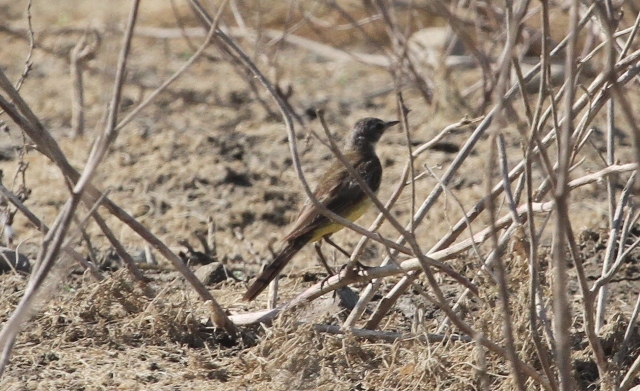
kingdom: Animalia
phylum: Chordata
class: Aves
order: Passeriformes
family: Motacillidae
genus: Motacilla
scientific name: Motacilla flava
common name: Western yellow wagtail
